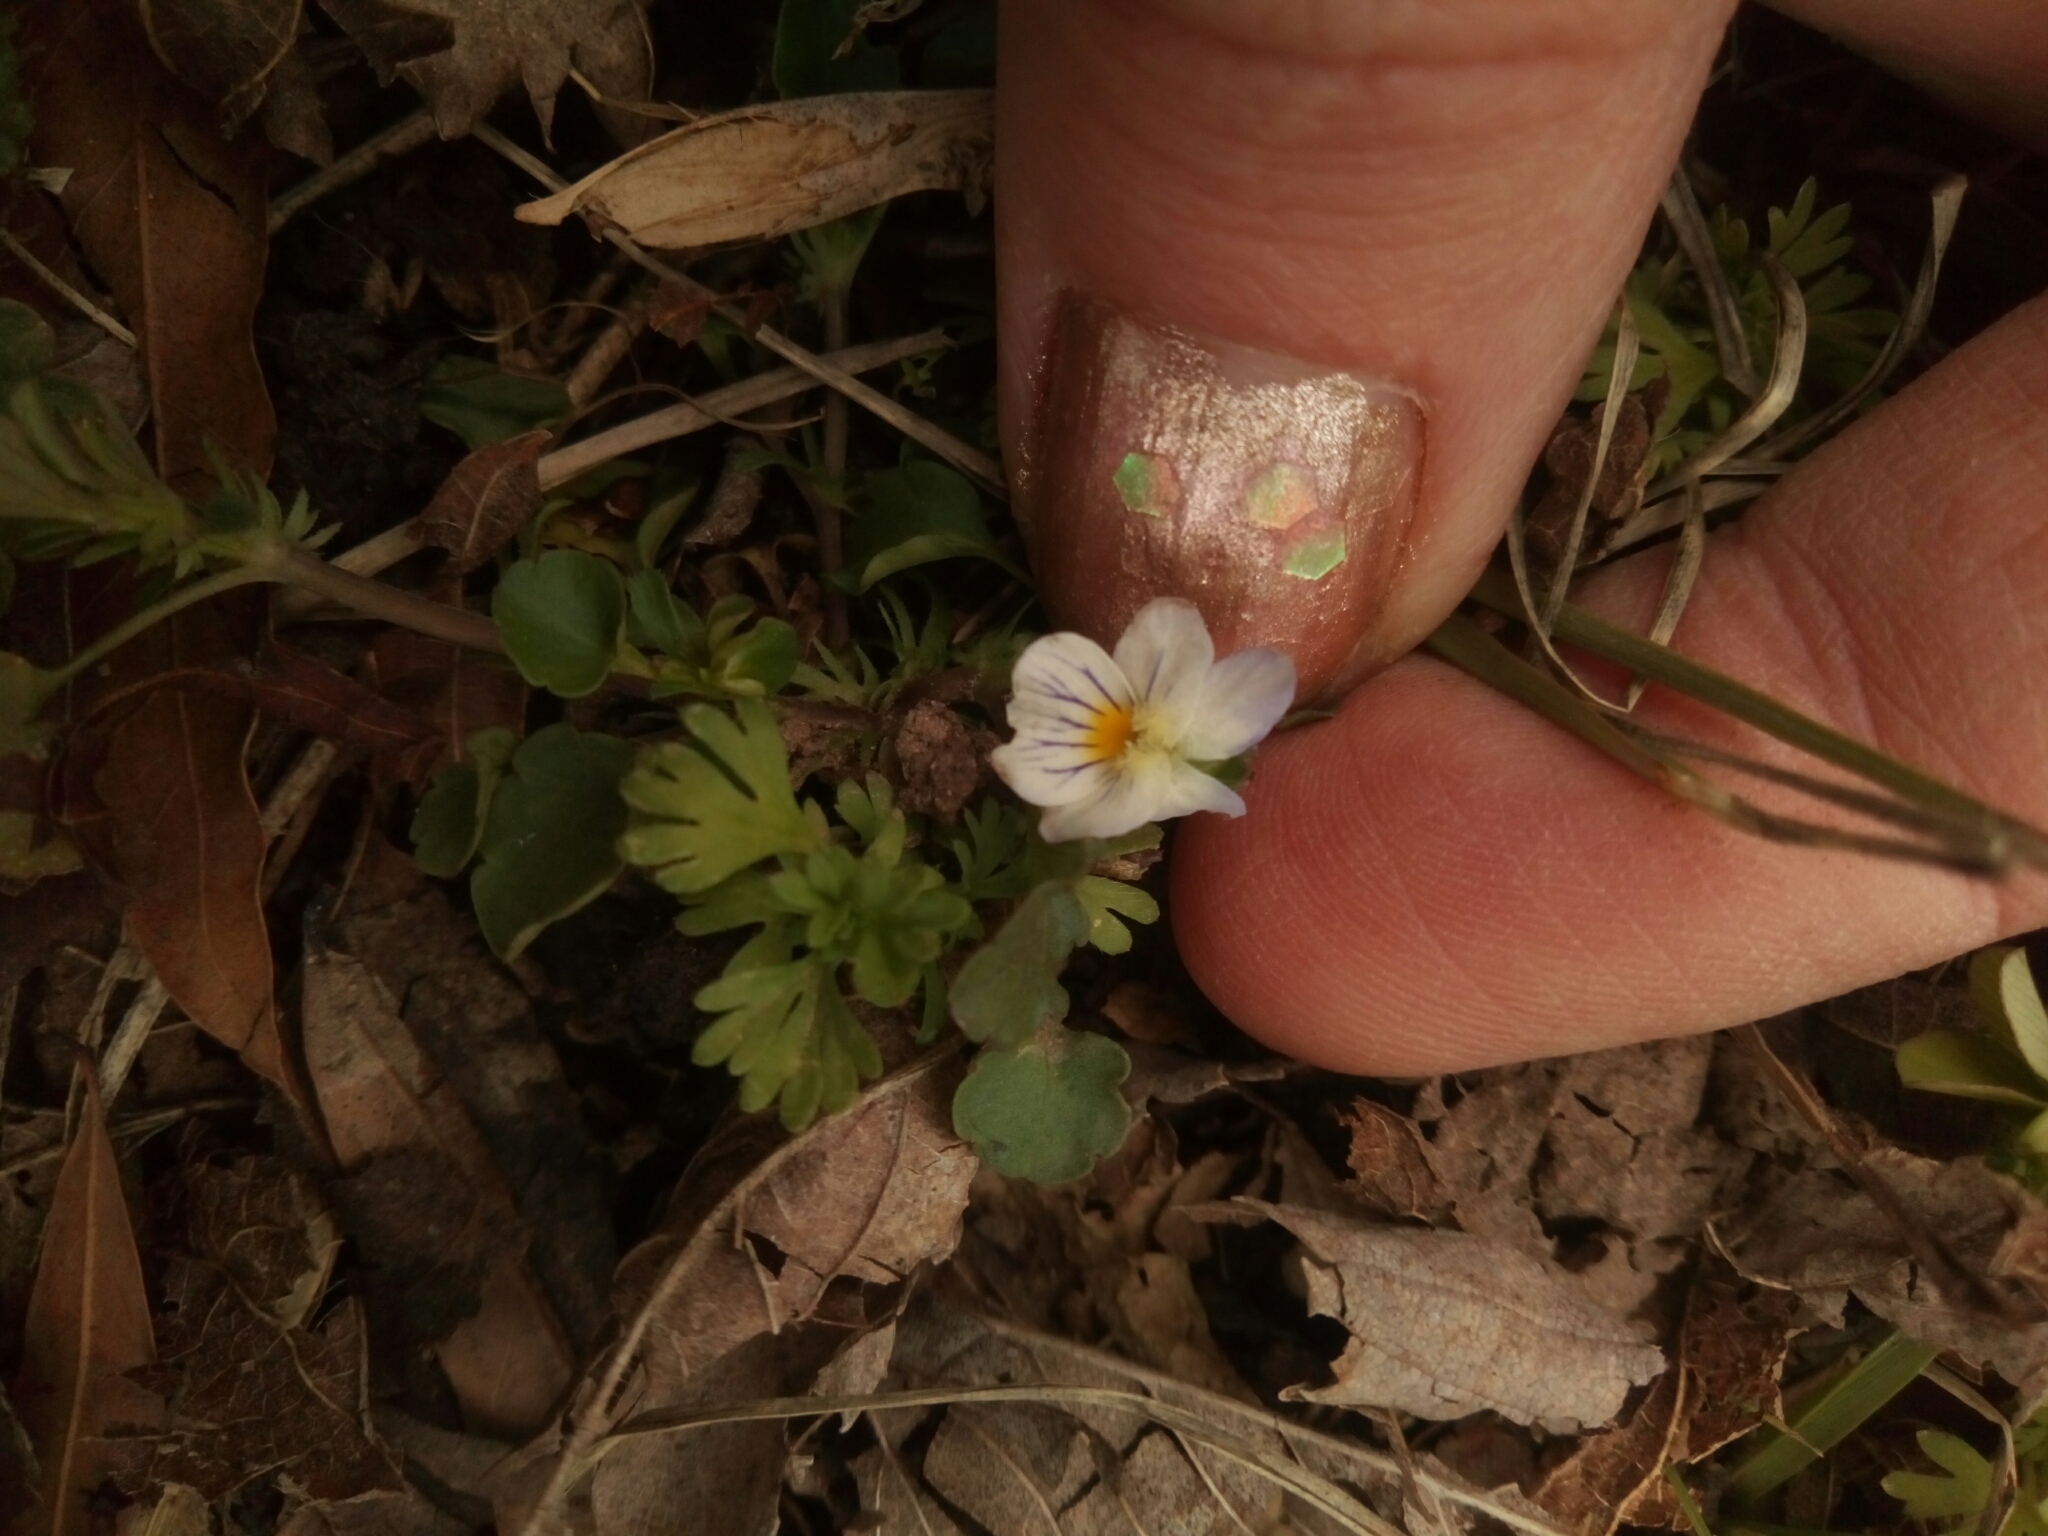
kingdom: Plantae
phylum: Tracheophyta
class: Magnoliopsida
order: Malpighiales
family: Violaceae
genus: Viola
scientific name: Viola rafinesquei
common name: American field pansy
